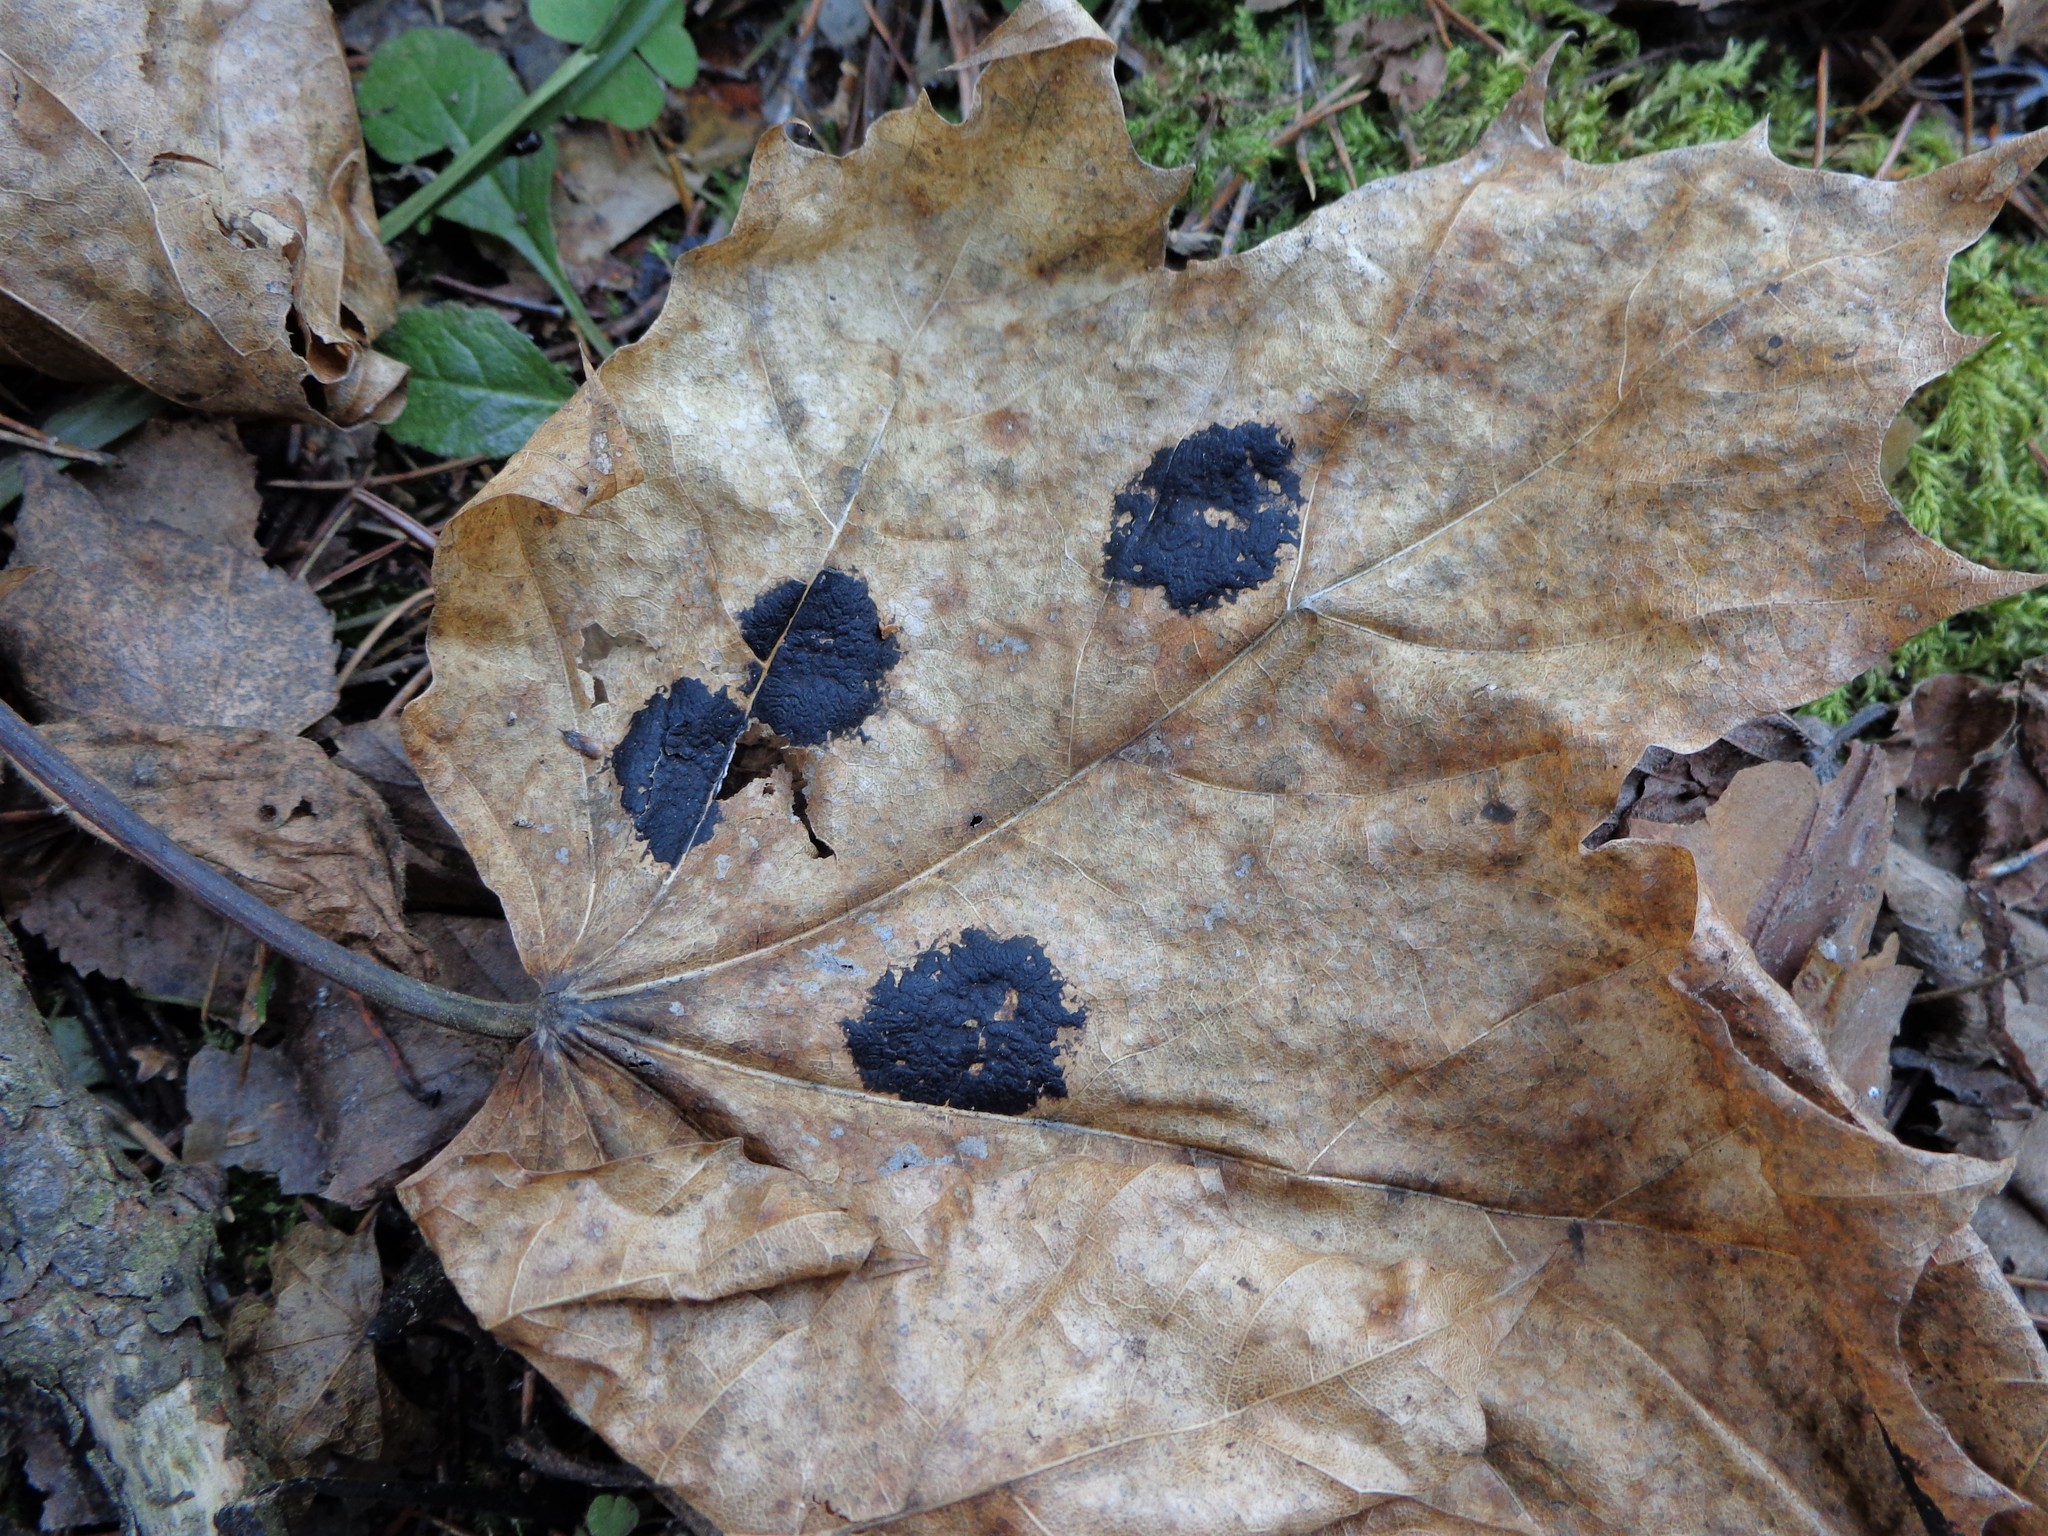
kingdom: Fungi
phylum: Ascomycota
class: Leotiomycetes
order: Rhytismatales
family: Rhytismataceae
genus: Rhytisma
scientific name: Rhytisma acerinum
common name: European tar spot
